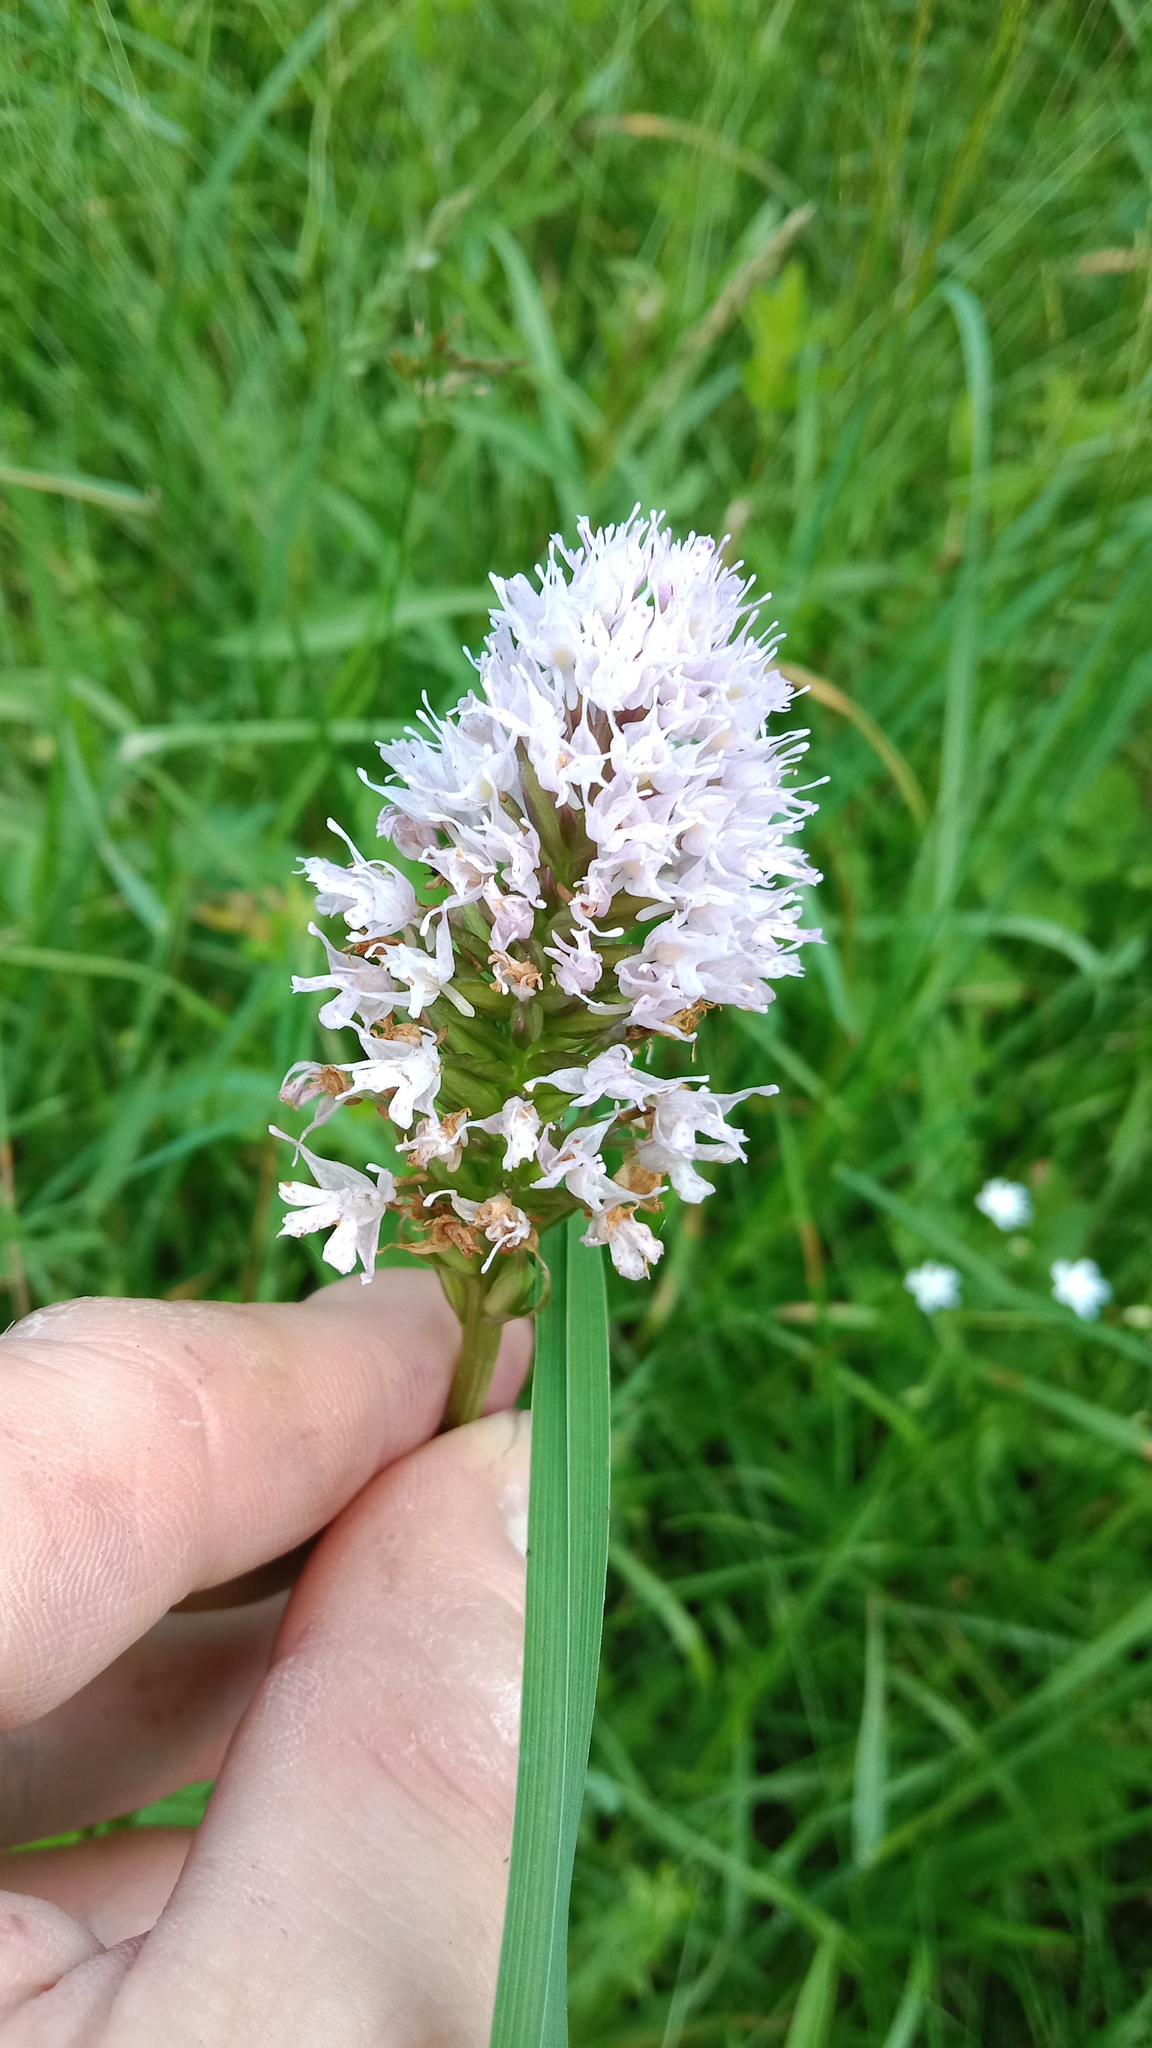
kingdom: Plantae
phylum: Tracheophyta
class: Liliopsida
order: Asparagales
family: Orchidaceae
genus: Traunsteinera
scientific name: Traunsteinera globosa
